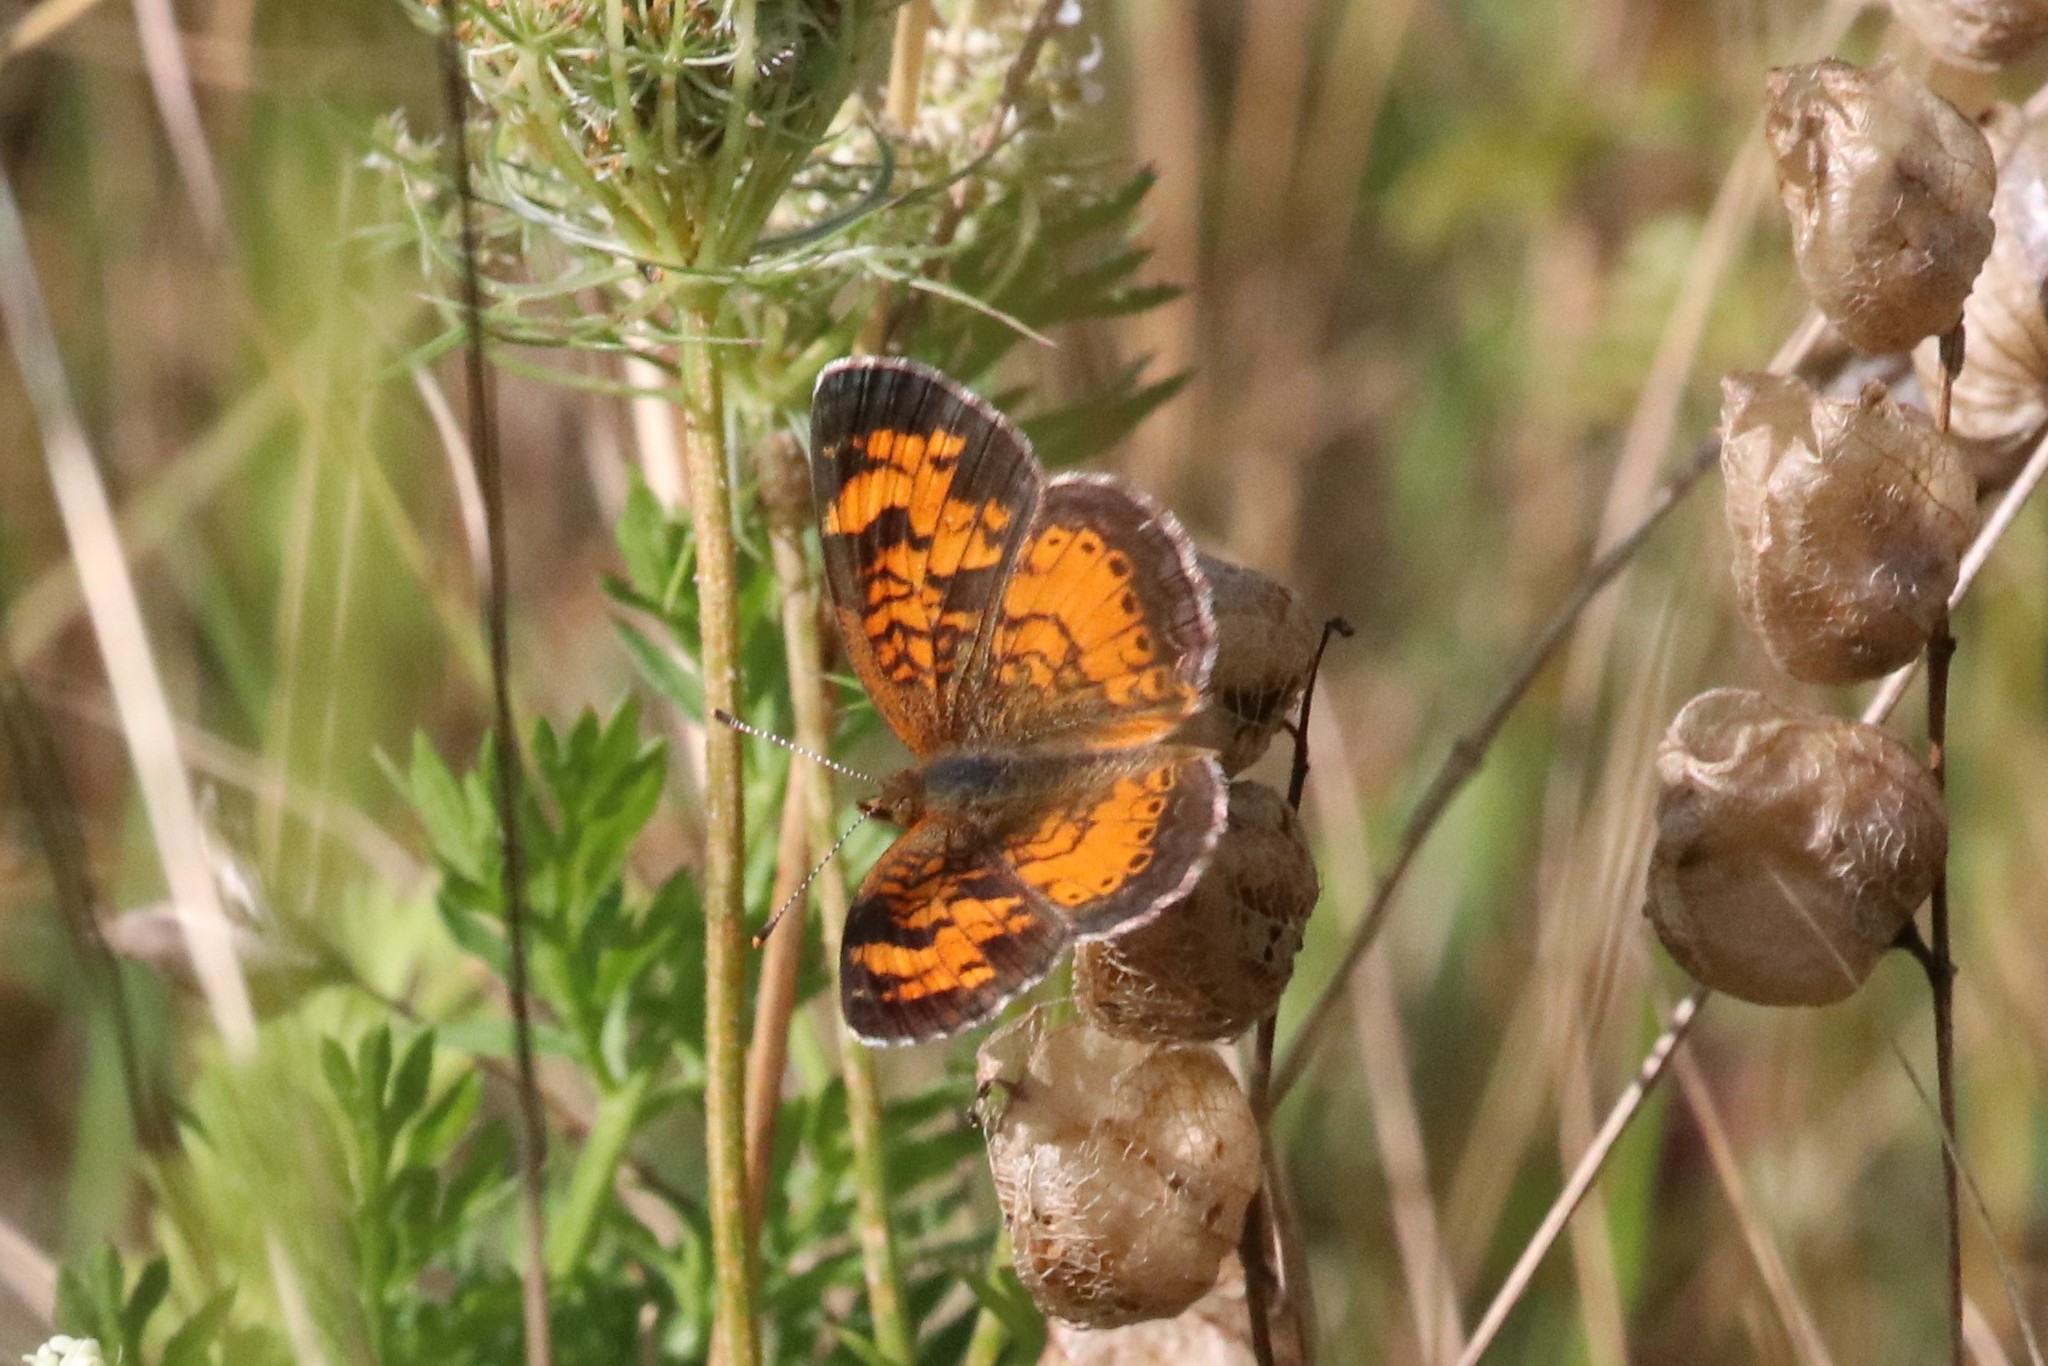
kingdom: Animalia
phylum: Arthropoda
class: Insecta
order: Lepidoptera
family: Nymphalidae
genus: Phyciodes
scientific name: Phyciodes tharos
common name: Pearl crescent
